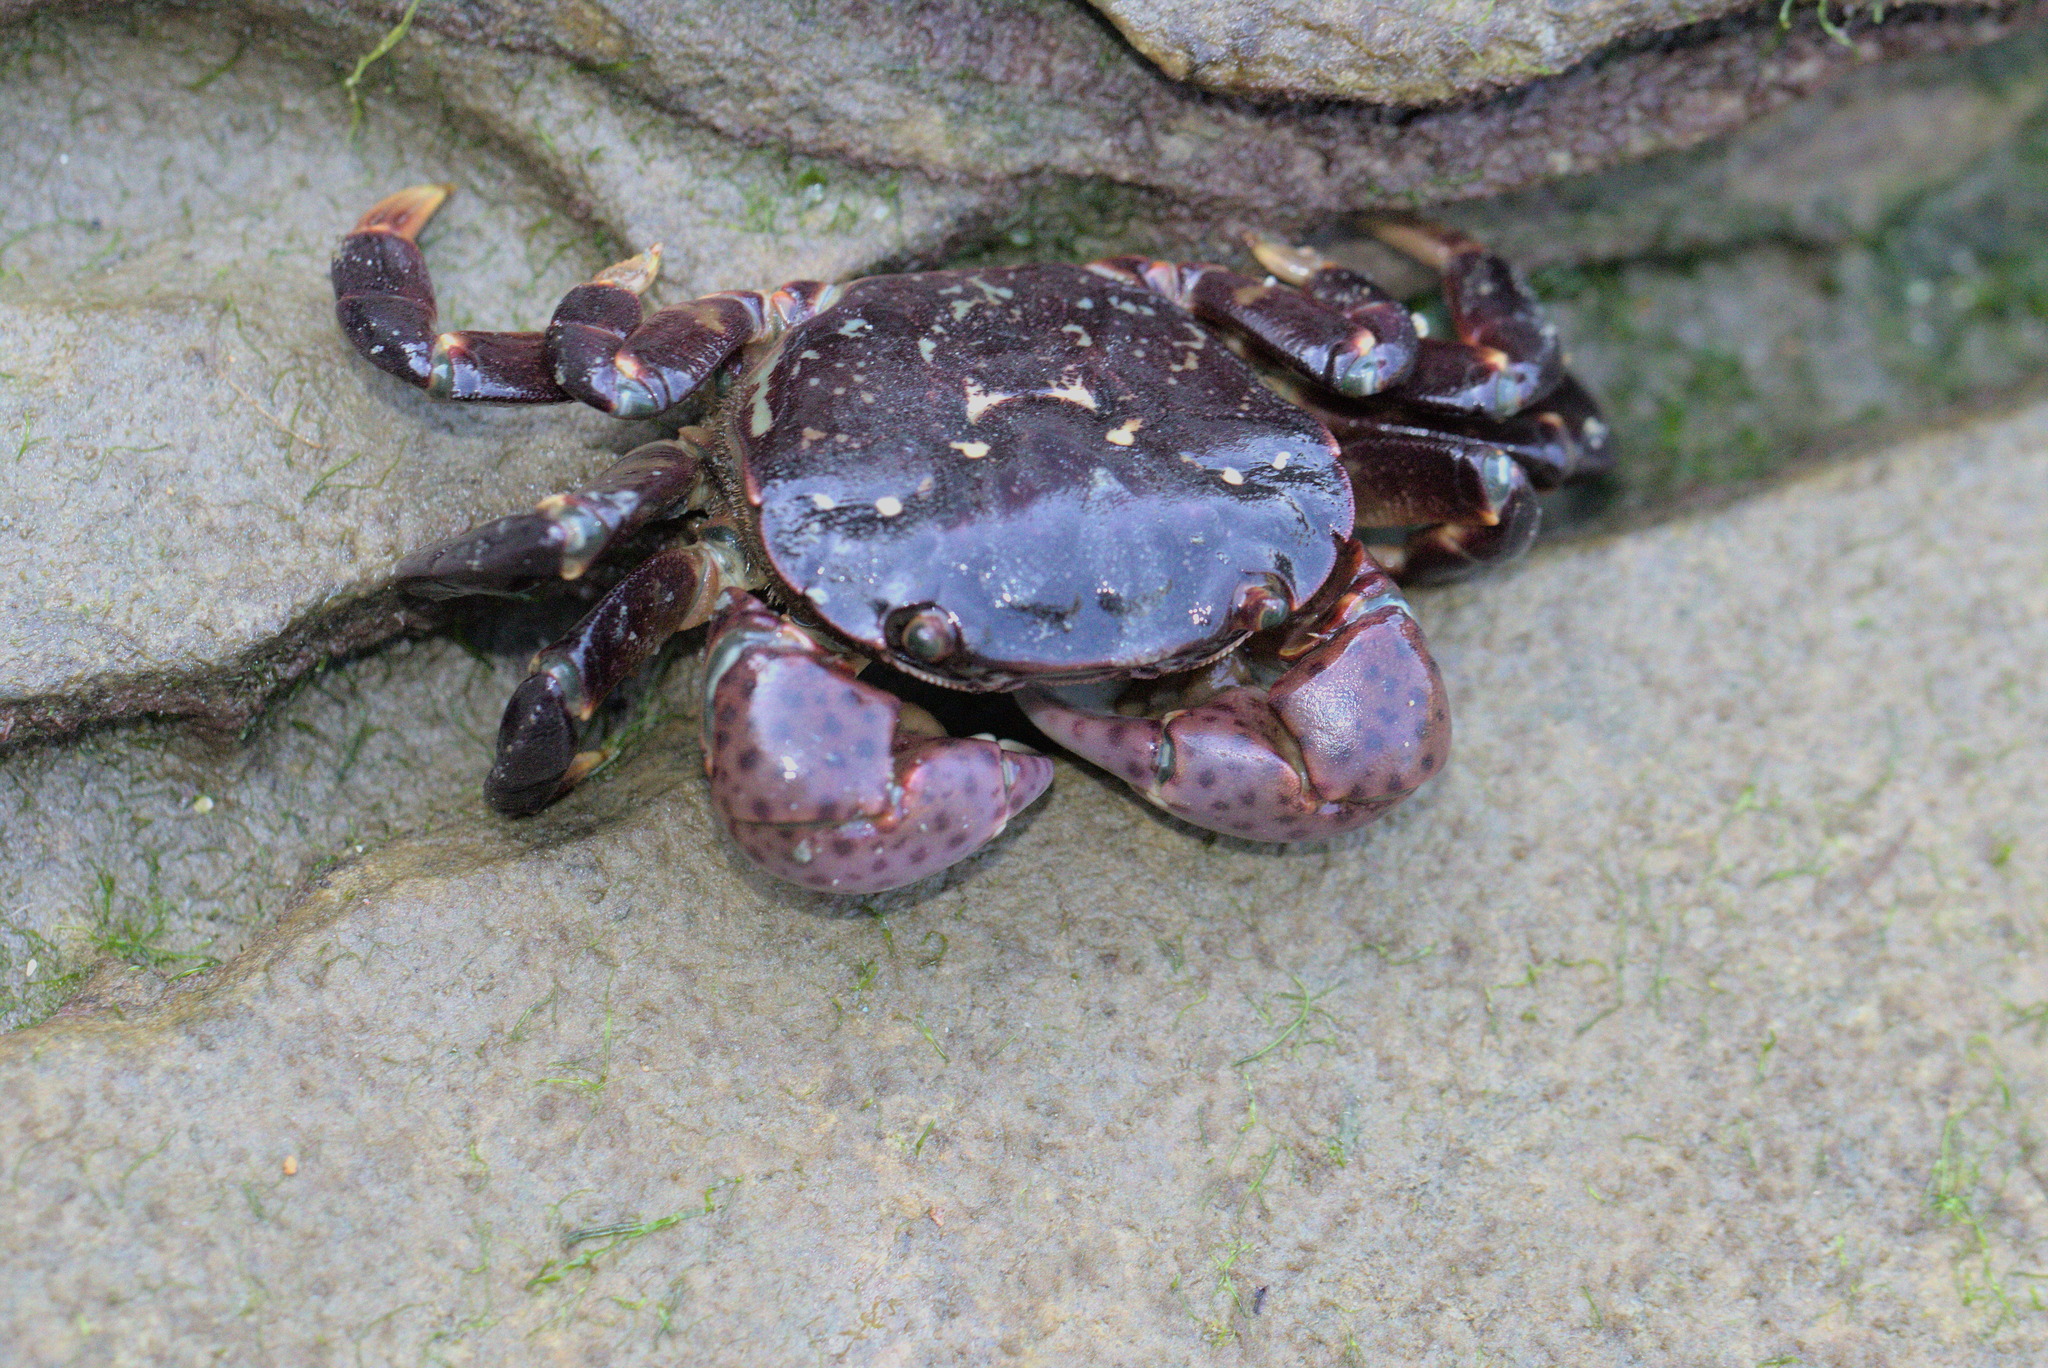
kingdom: Animalia
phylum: Arthropoda
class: Malacostraca
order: Decapoda
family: Varunidae
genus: Hemigrapsus
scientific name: Hemigrapsus nudus
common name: Purple shore crab
